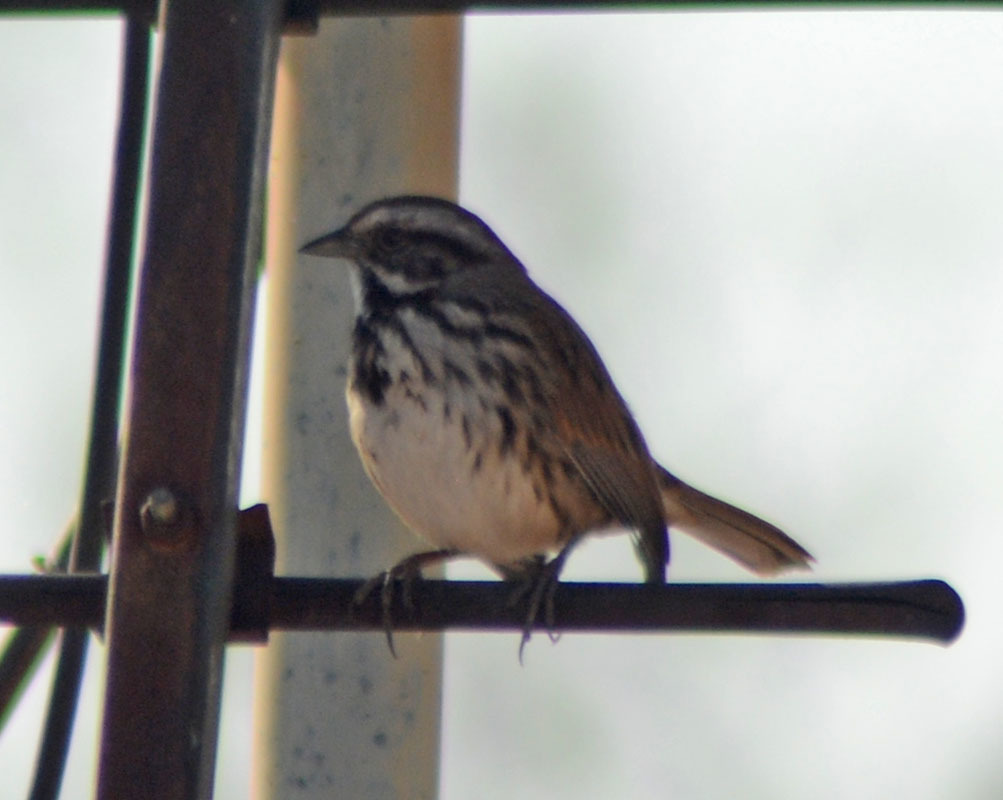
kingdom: Animalia
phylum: Chordata
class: Aves
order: Passeriformes
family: Passerellidae
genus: Melospiza
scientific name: Melospiza melodia
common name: Song sparrow
